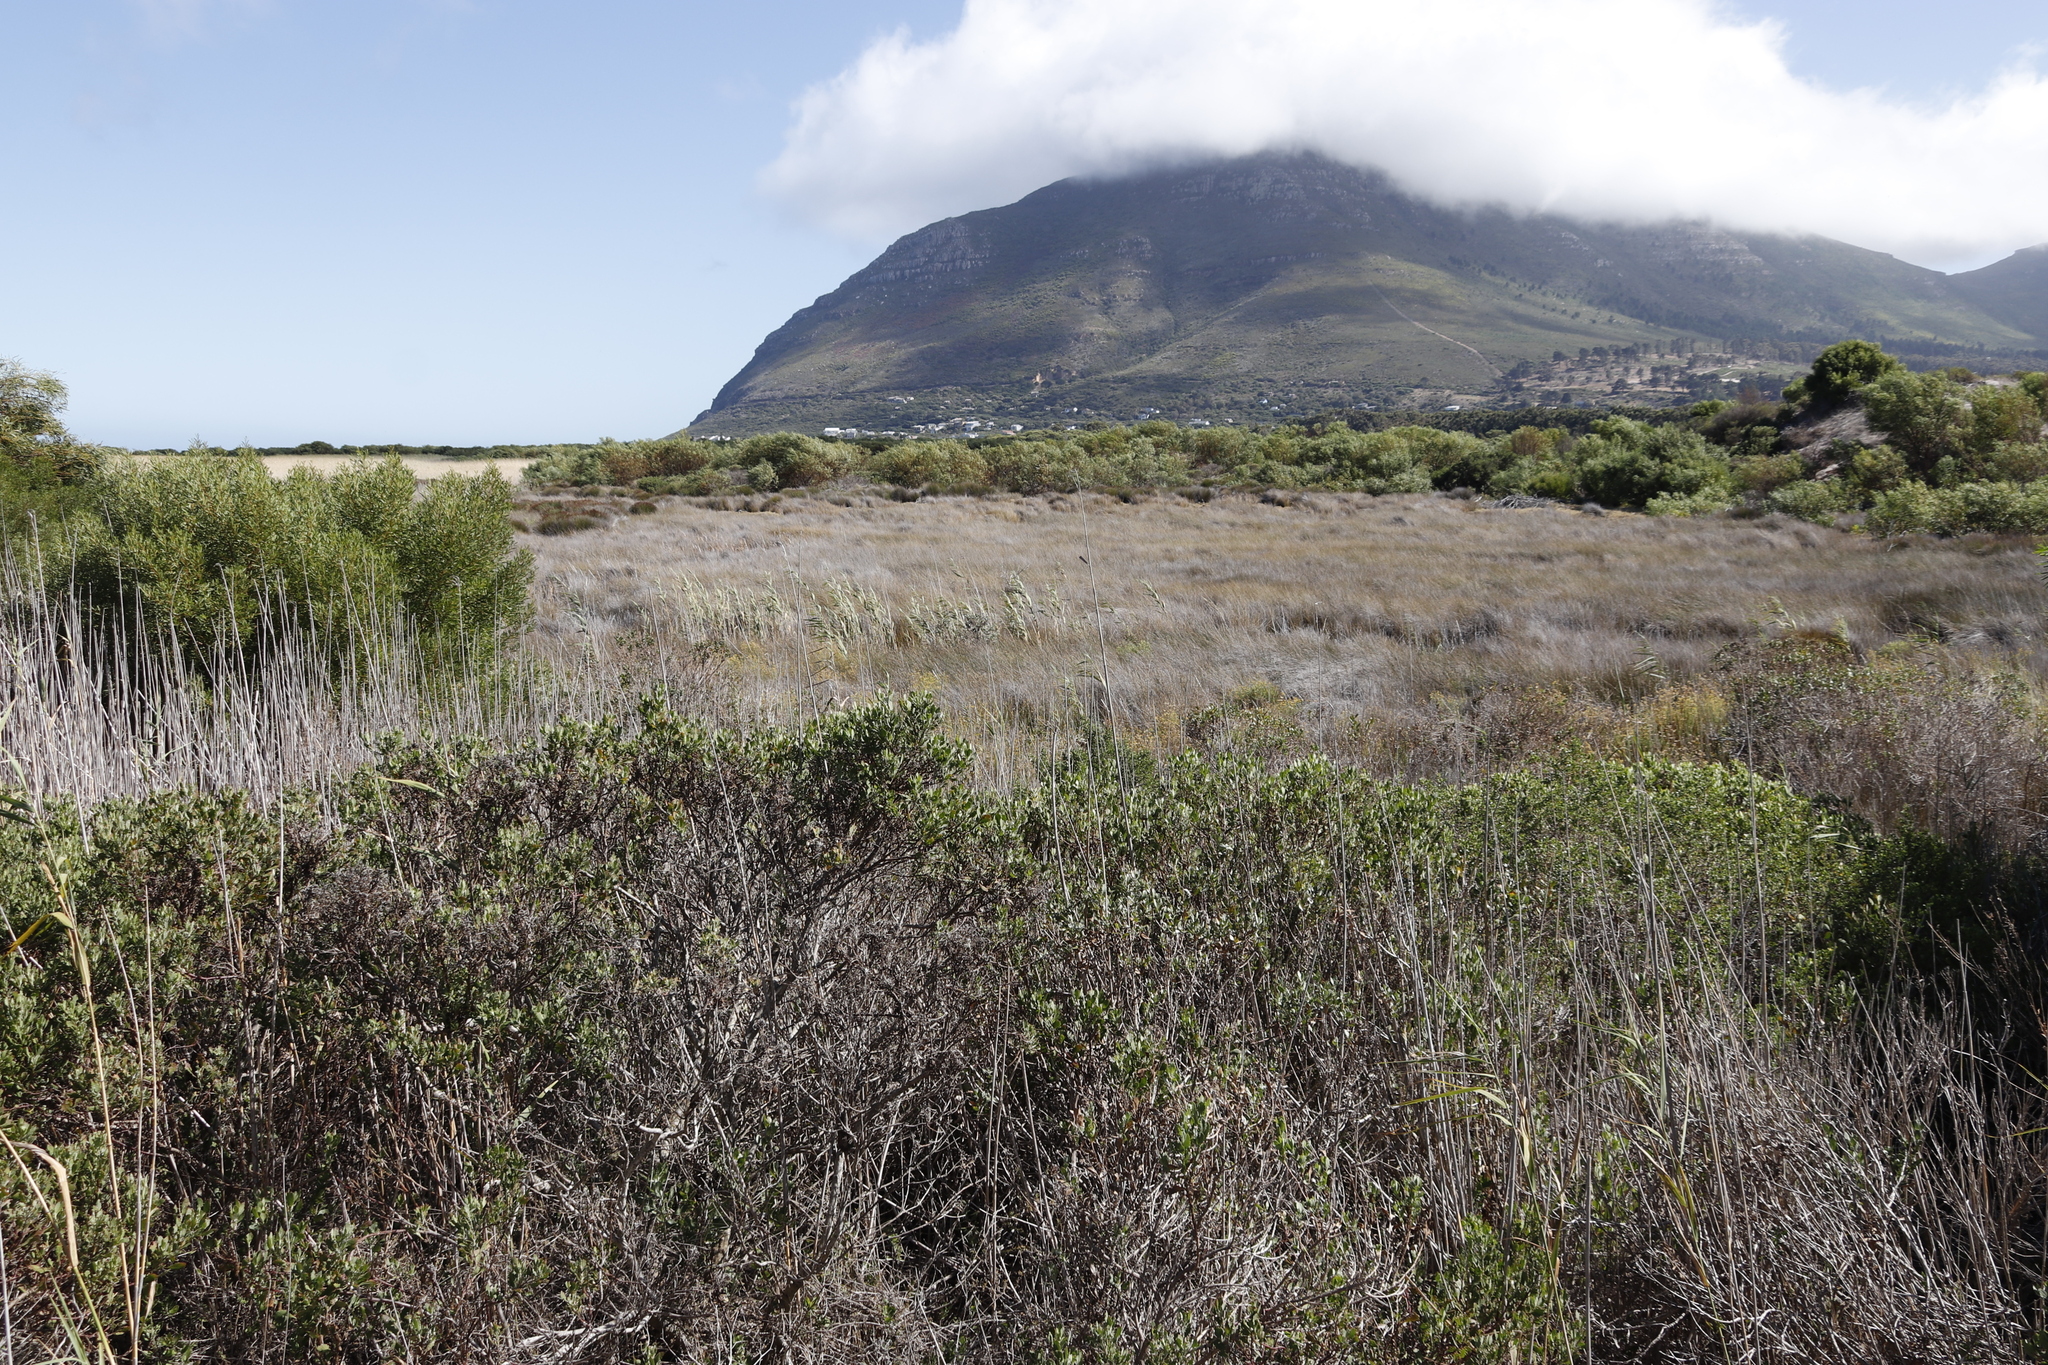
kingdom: Plantae
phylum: Tracheophyta
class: Liliopsida
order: Poales
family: Poaceae
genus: Phragmites
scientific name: Phragmites australis
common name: Common reed
